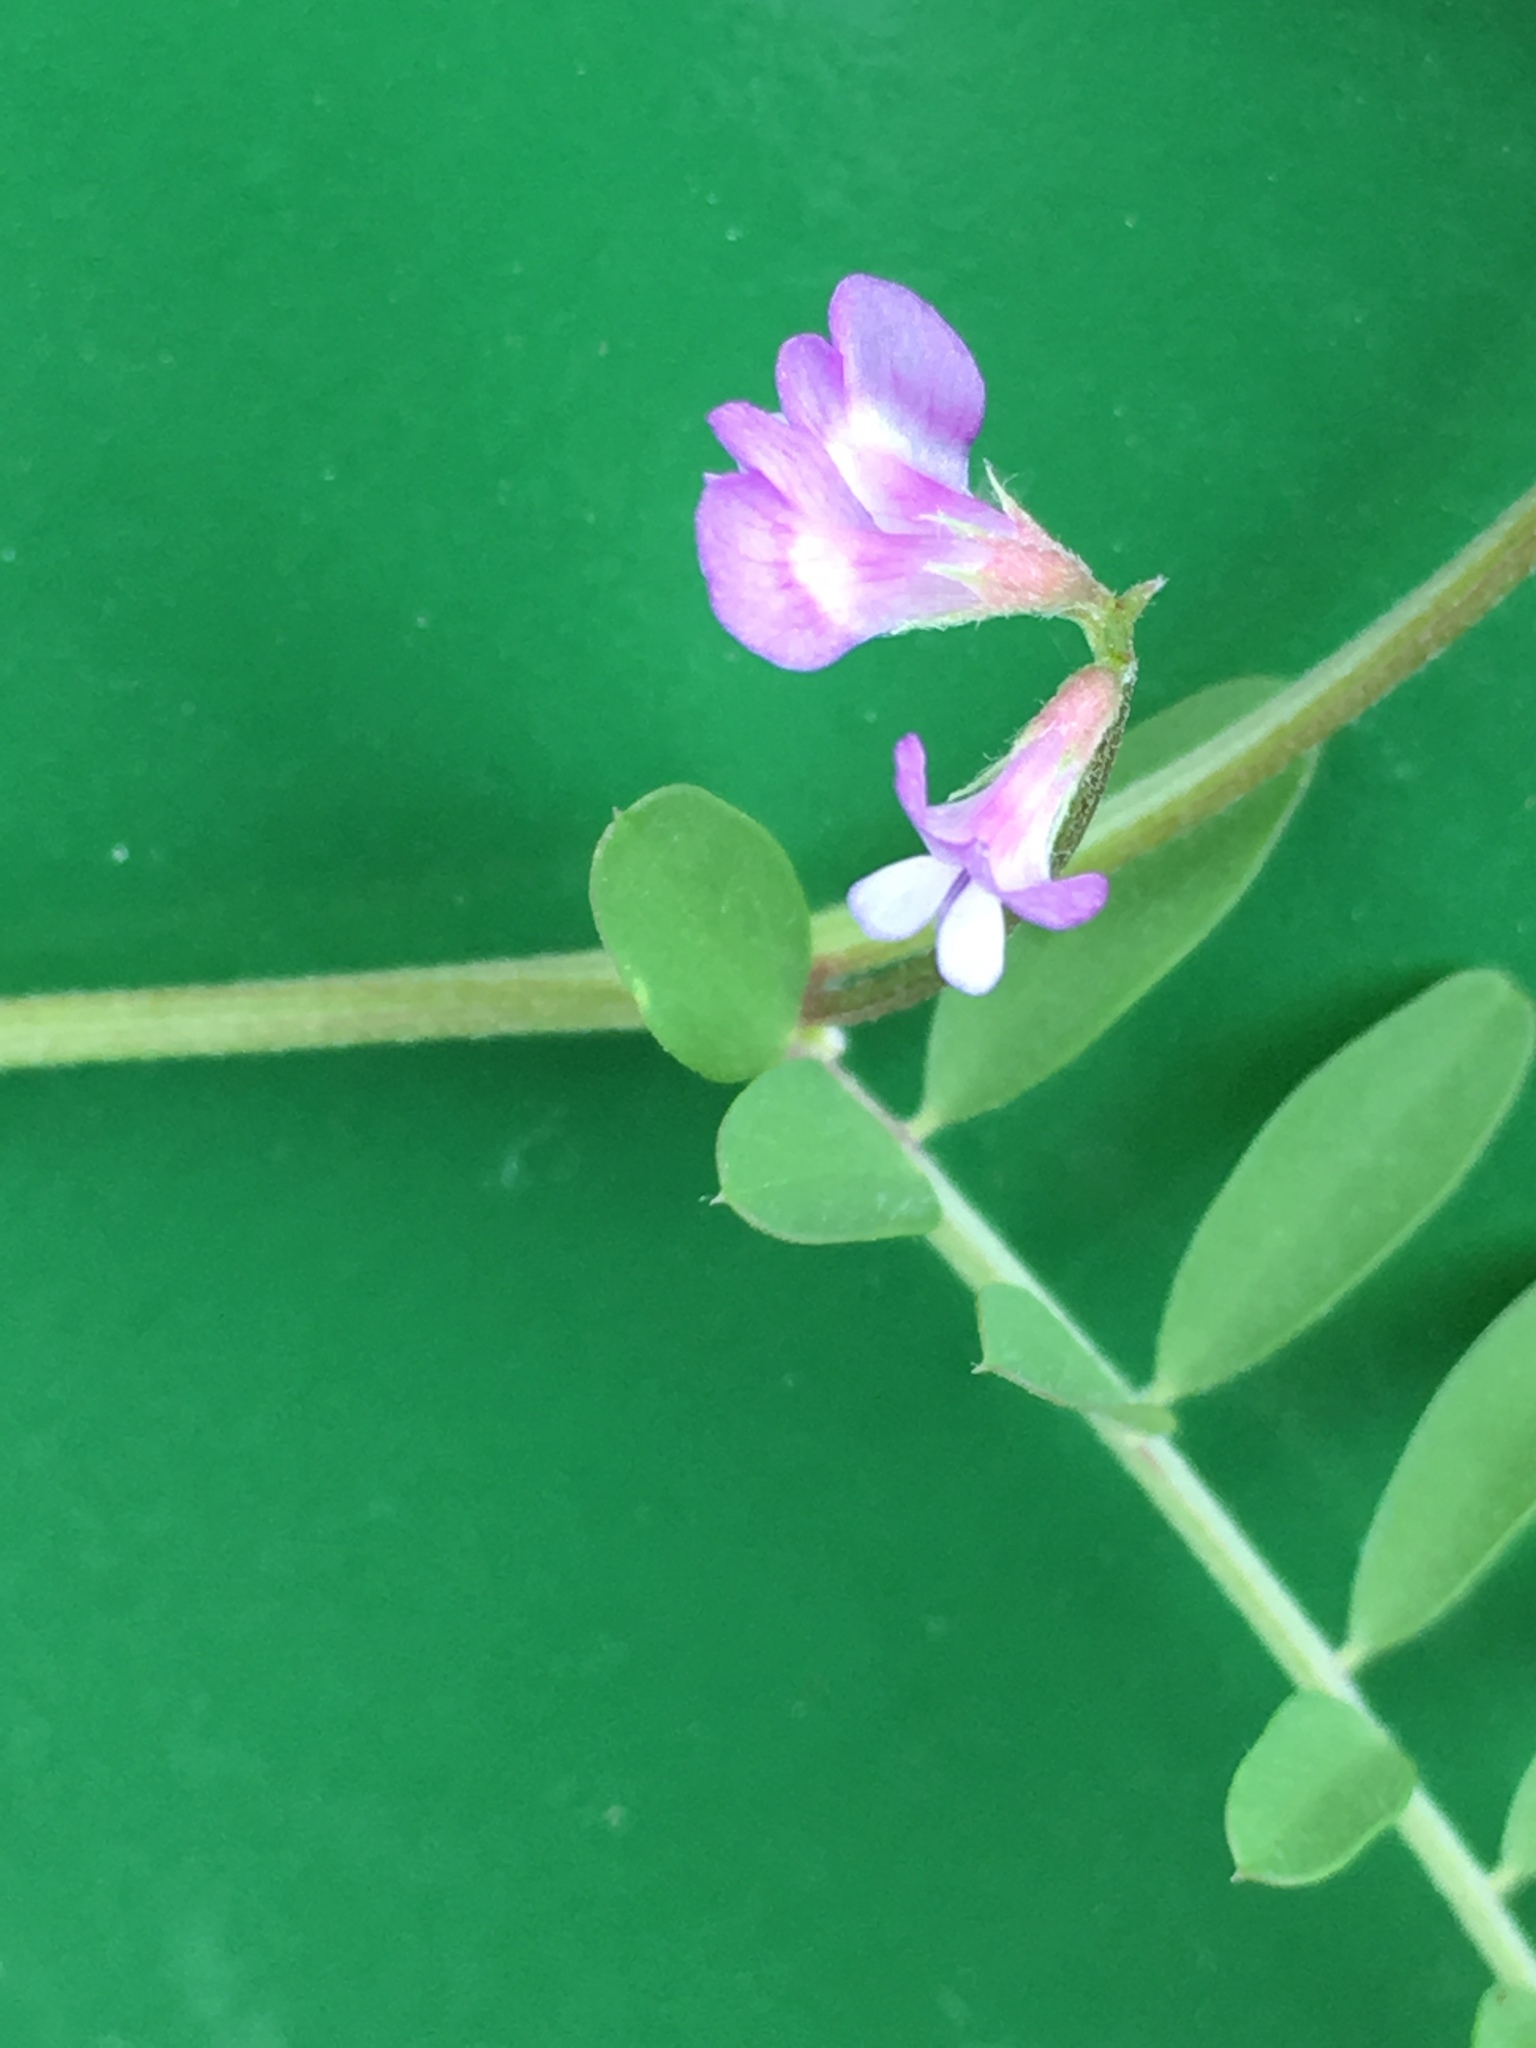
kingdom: Plantae
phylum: Tracheophyta
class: Magnoliopsida
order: Fabales
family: Fabaceae
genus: Vicia
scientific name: Vicia ludoviciana
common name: Louisiana vetch
